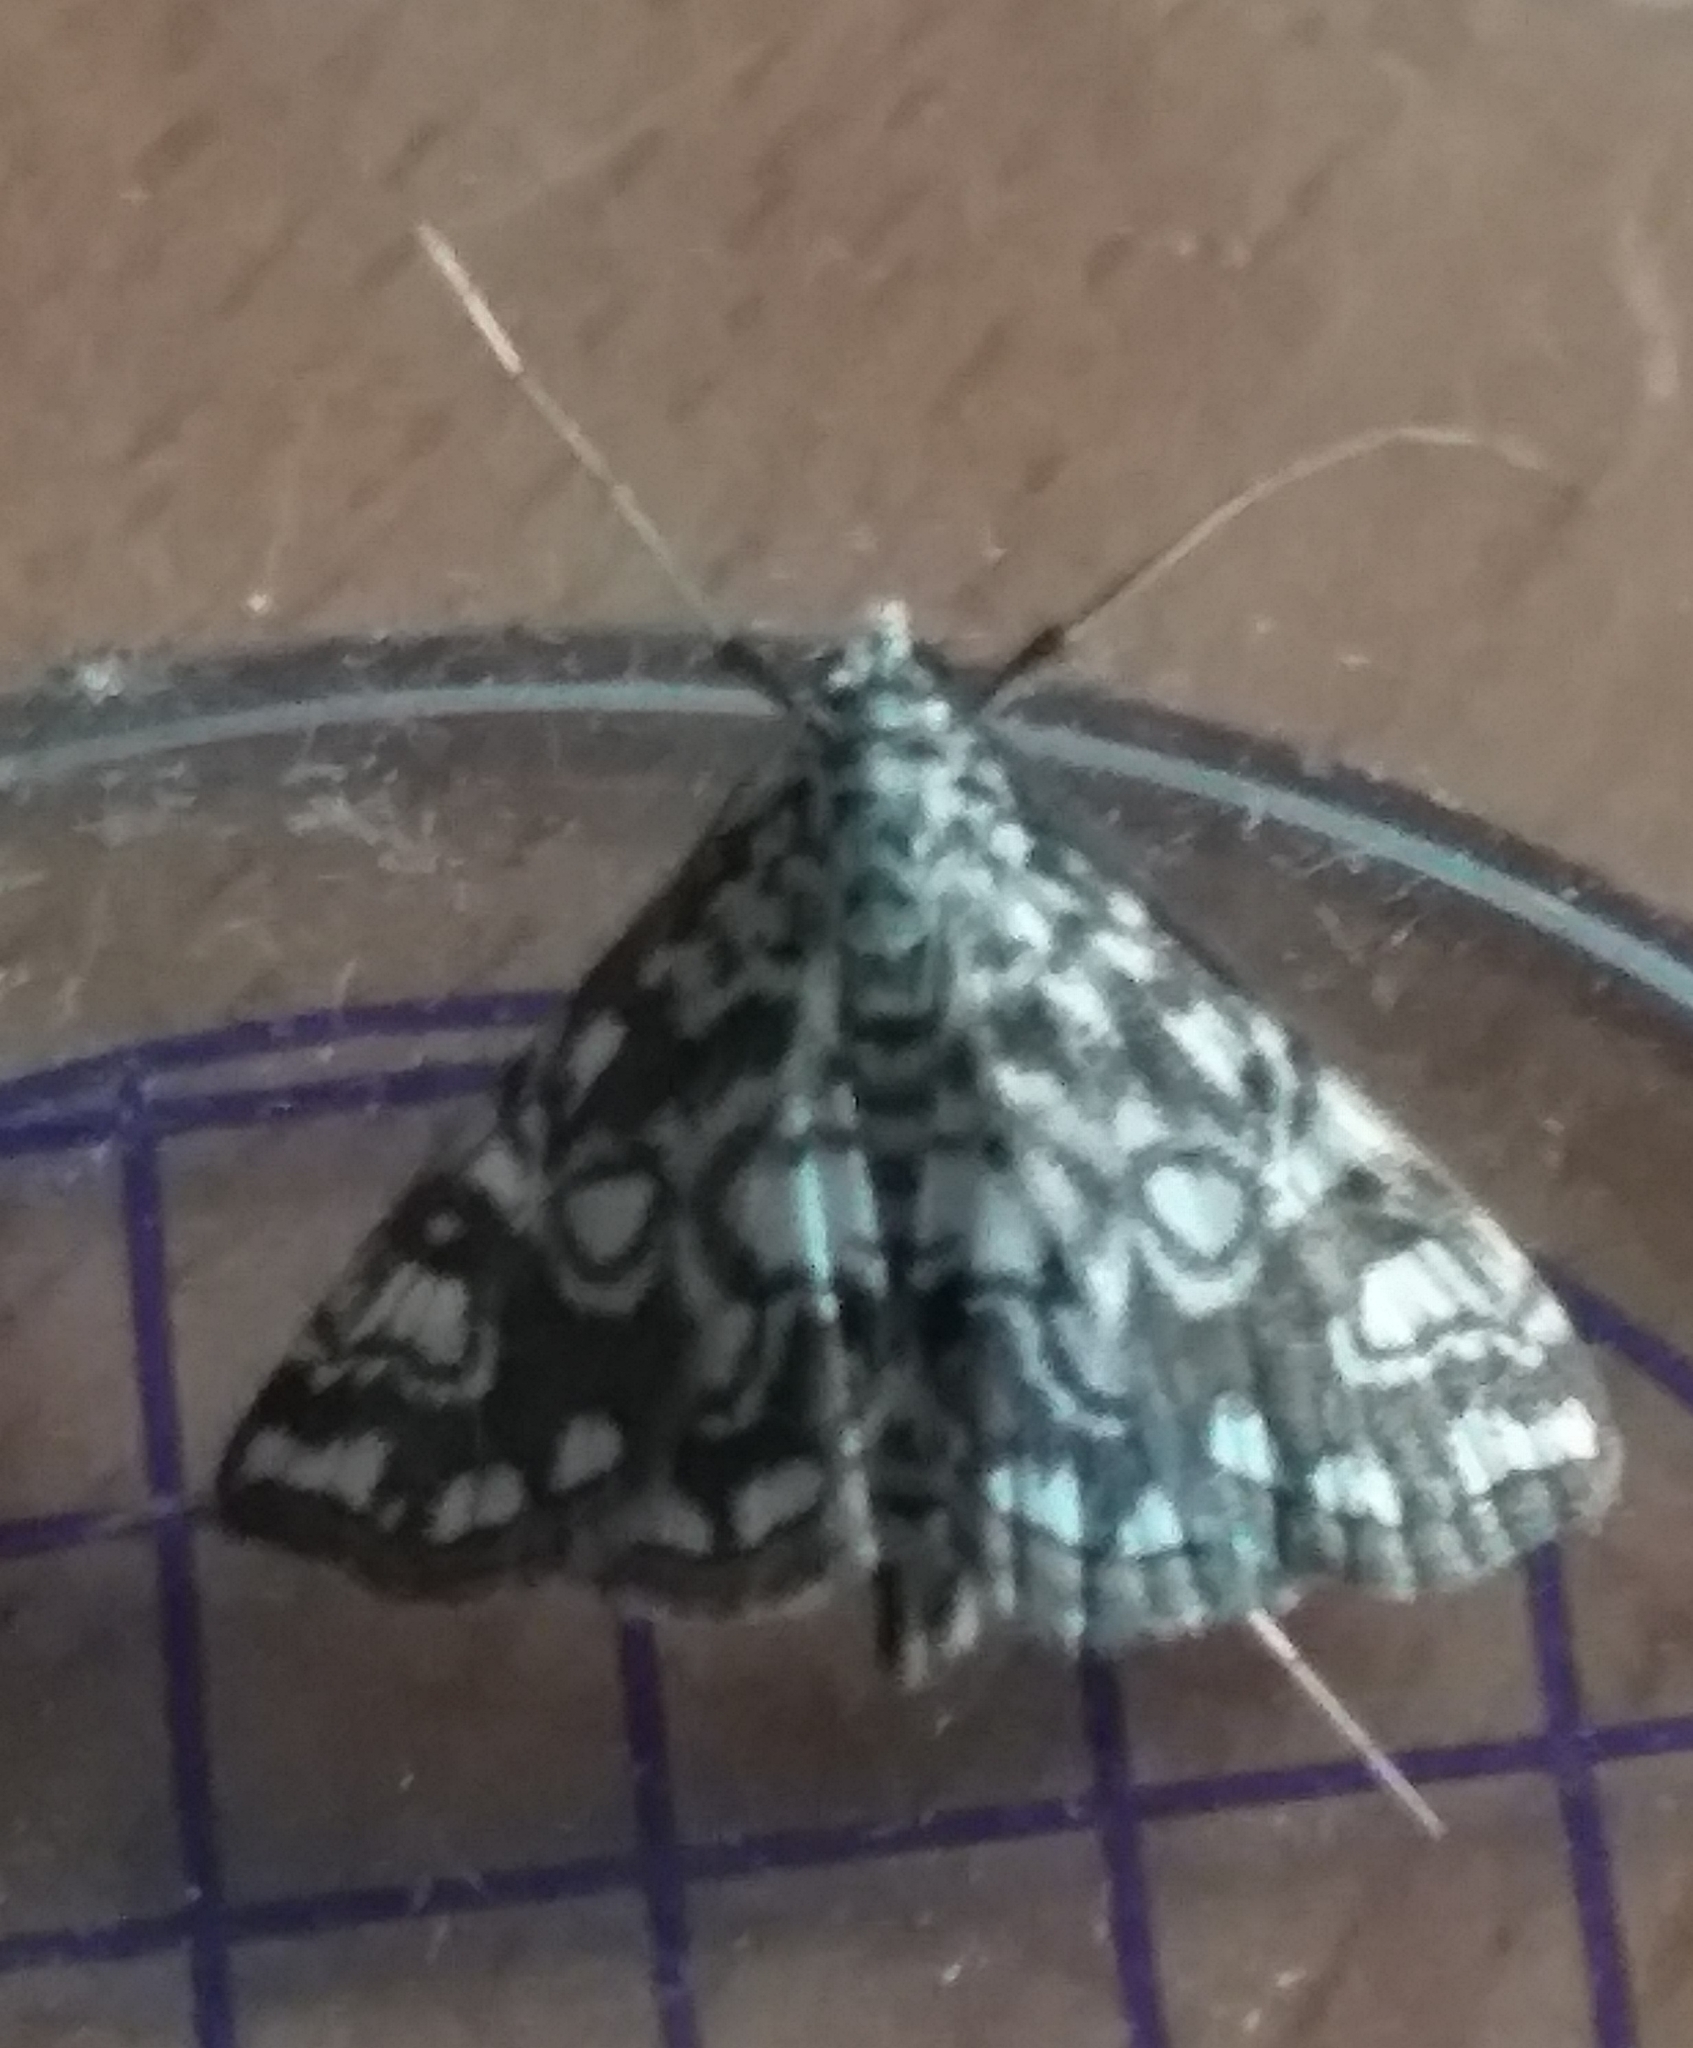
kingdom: Animalia
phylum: Arthropoda
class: Insecta
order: Lepidoptera
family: Crambidae
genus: Elophila
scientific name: Elophila nymphaeata
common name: Brown china-mark
